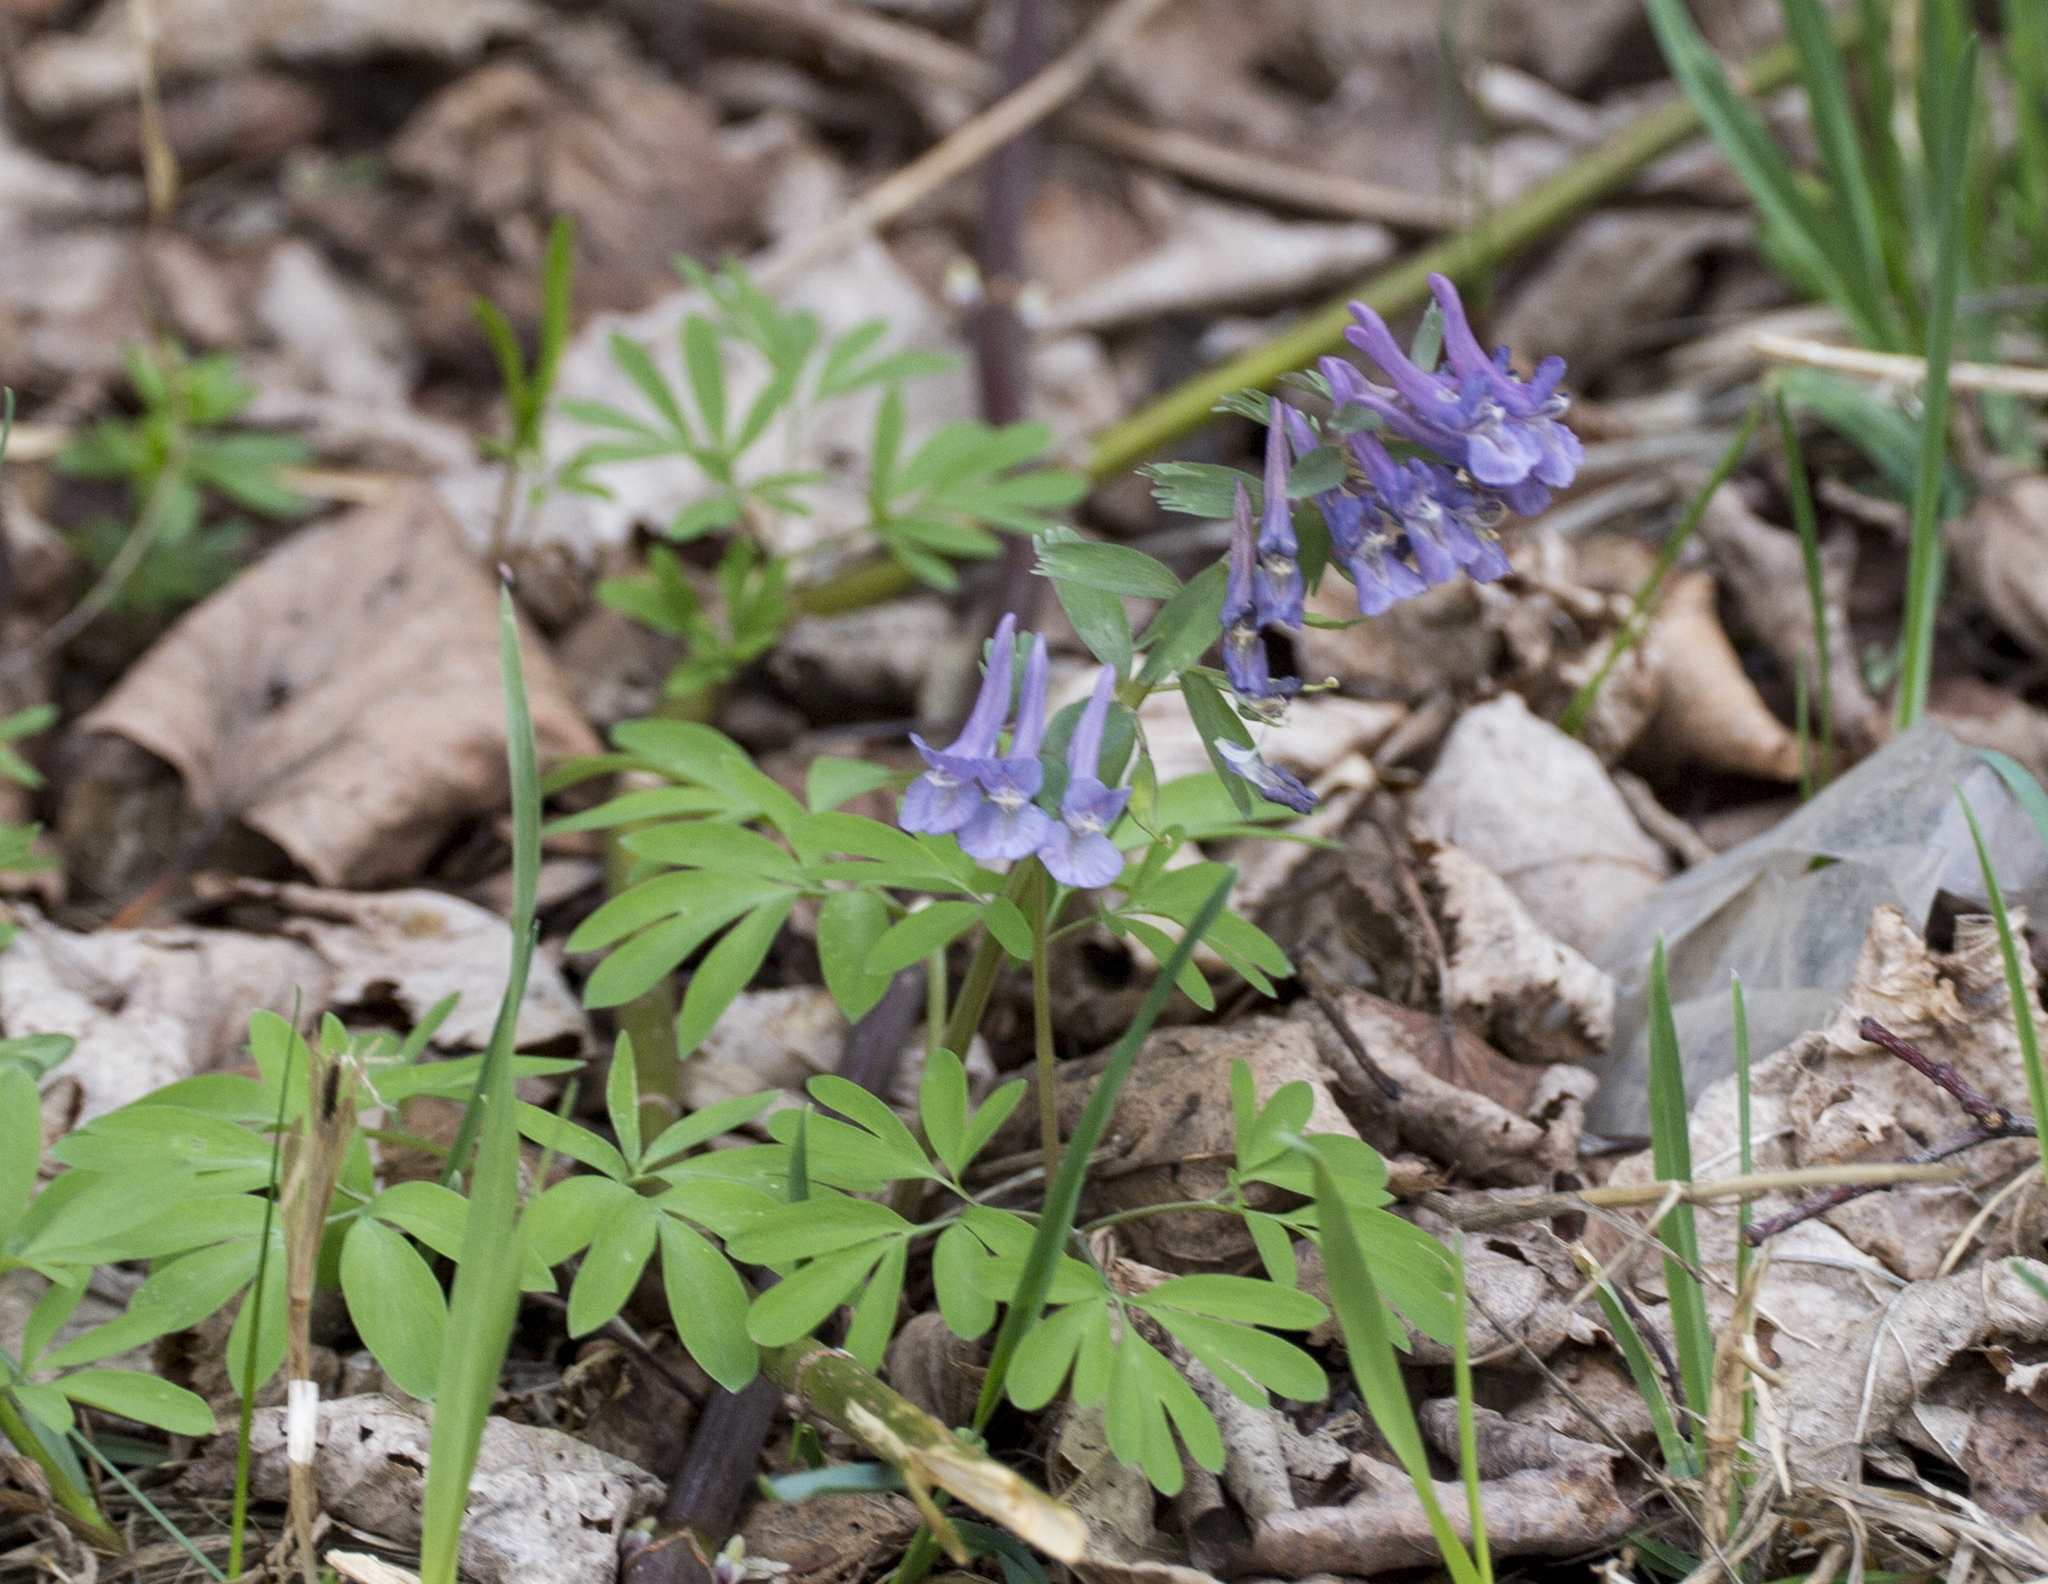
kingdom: Plantae
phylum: Tracheophyta
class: Magnoliopsida
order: Ranunculales
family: Papaveraceae
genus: Corydalis
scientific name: Corydalis solida
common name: Bird-in-a-bush
